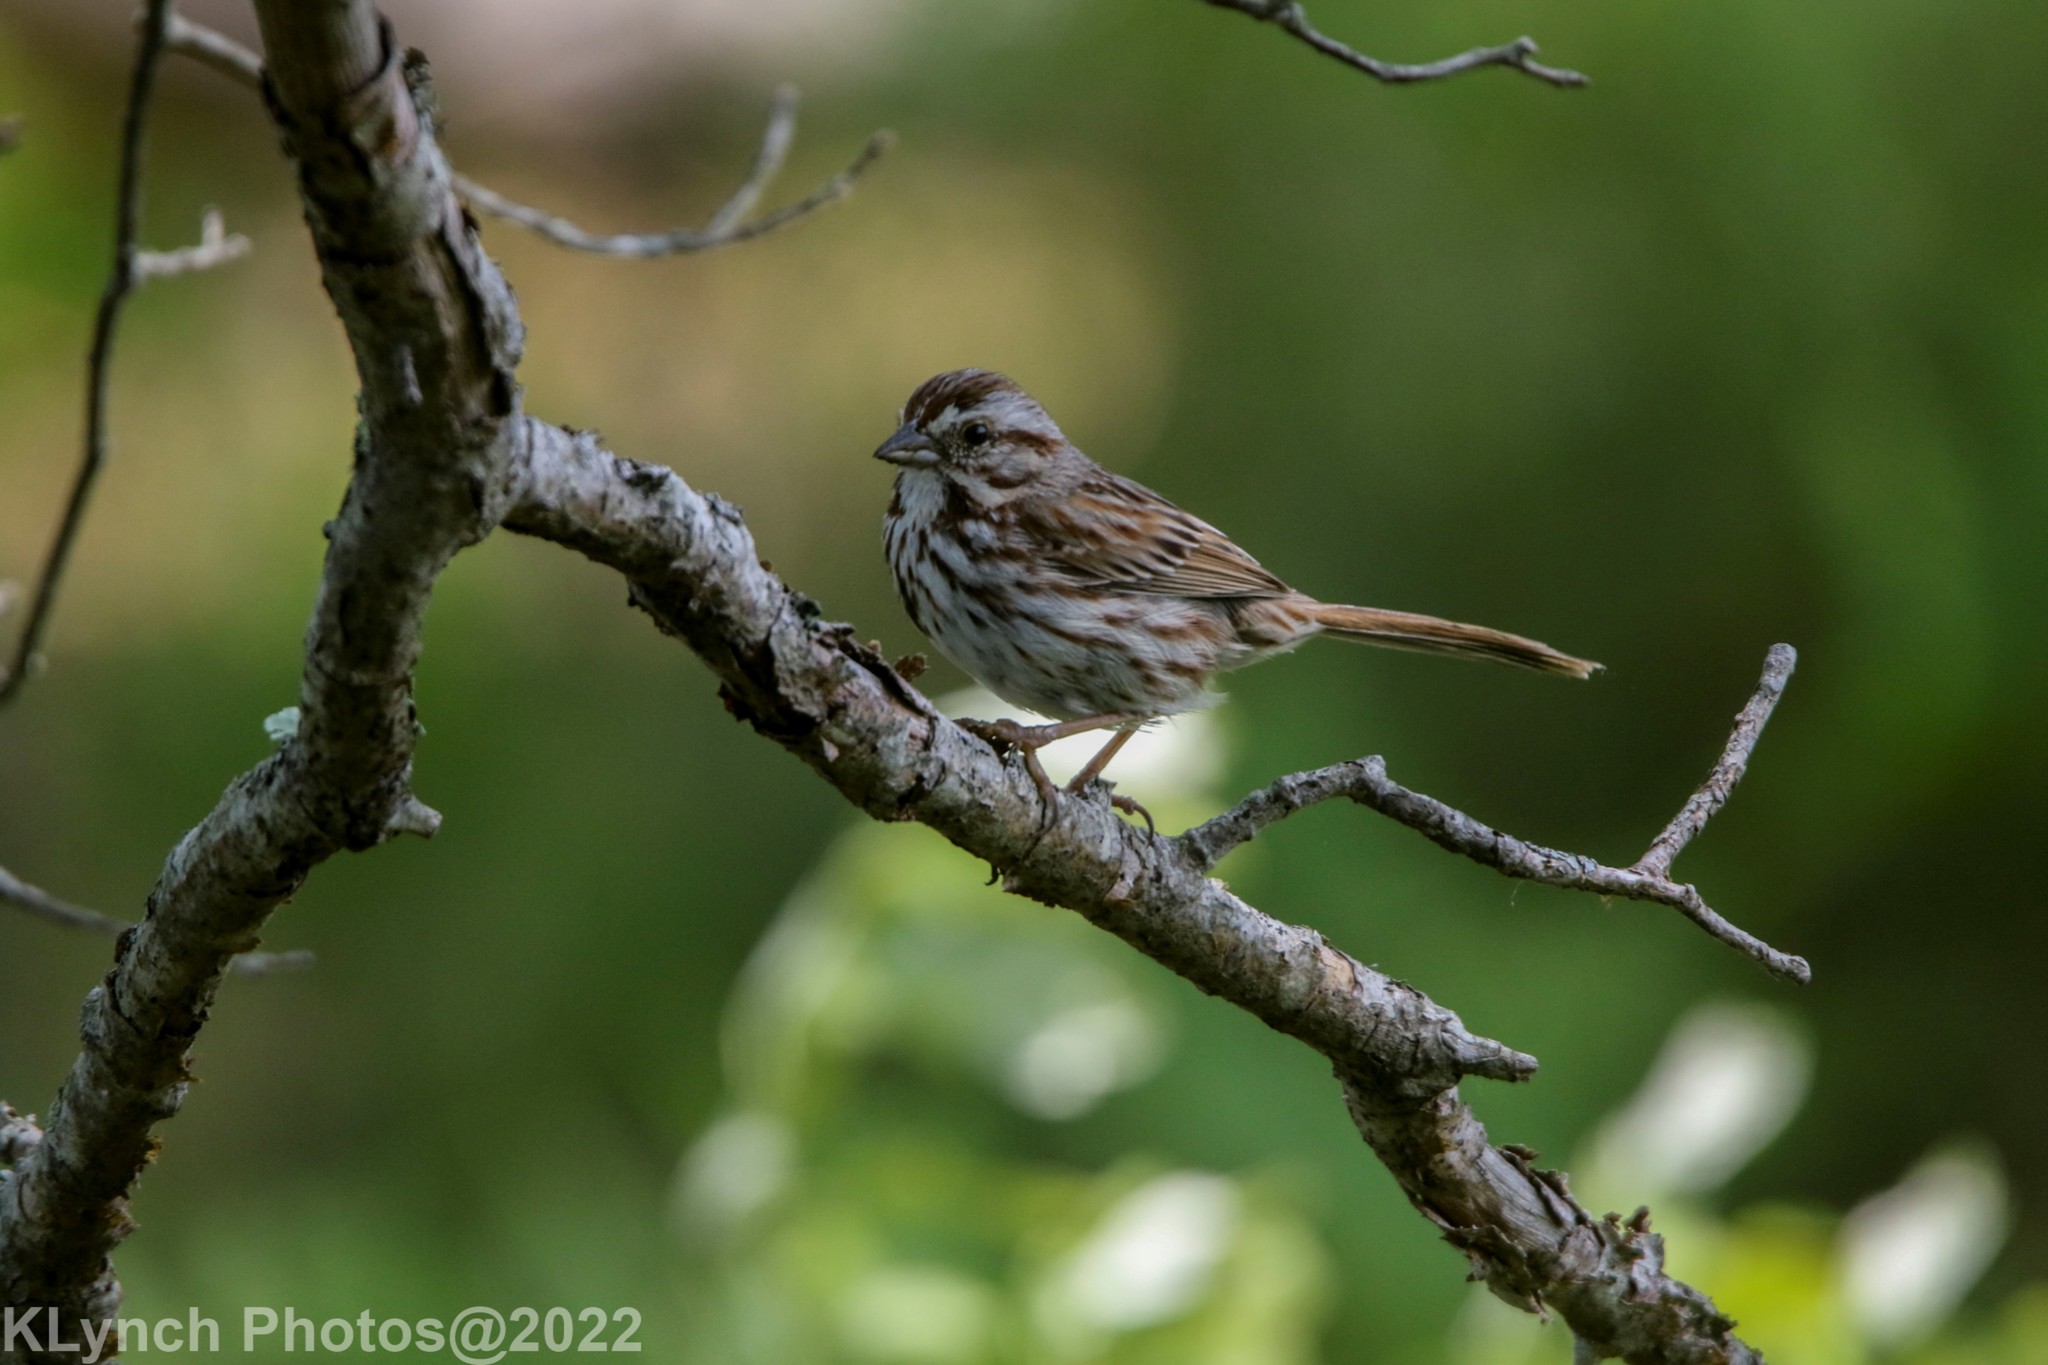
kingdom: Animalia
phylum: Chordata
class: Aves
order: Passeriformes
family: Passerellidae
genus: Melospiza
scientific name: Melospiza melodia
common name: Song sparrow
